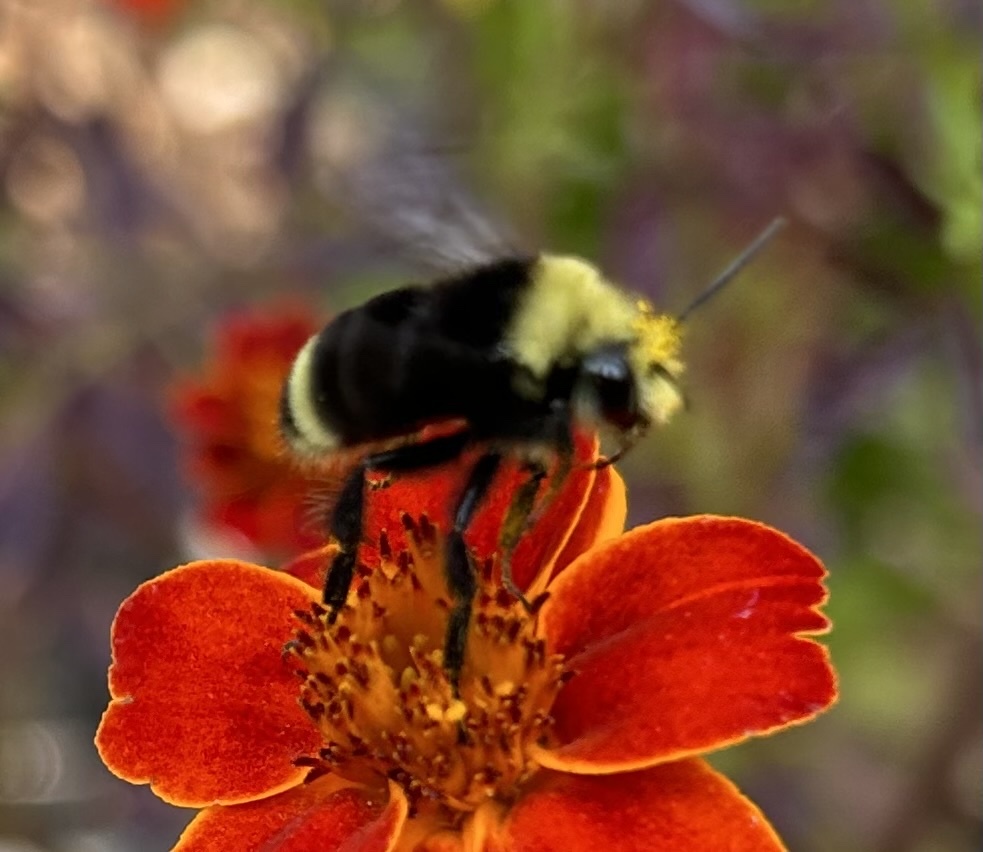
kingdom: Animalia
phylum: Arthropoda
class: Insecta
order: Hymenoptera
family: Apidae
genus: Bombus
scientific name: Bombus vosnesenskii
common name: Vosnesensky bumble bee
